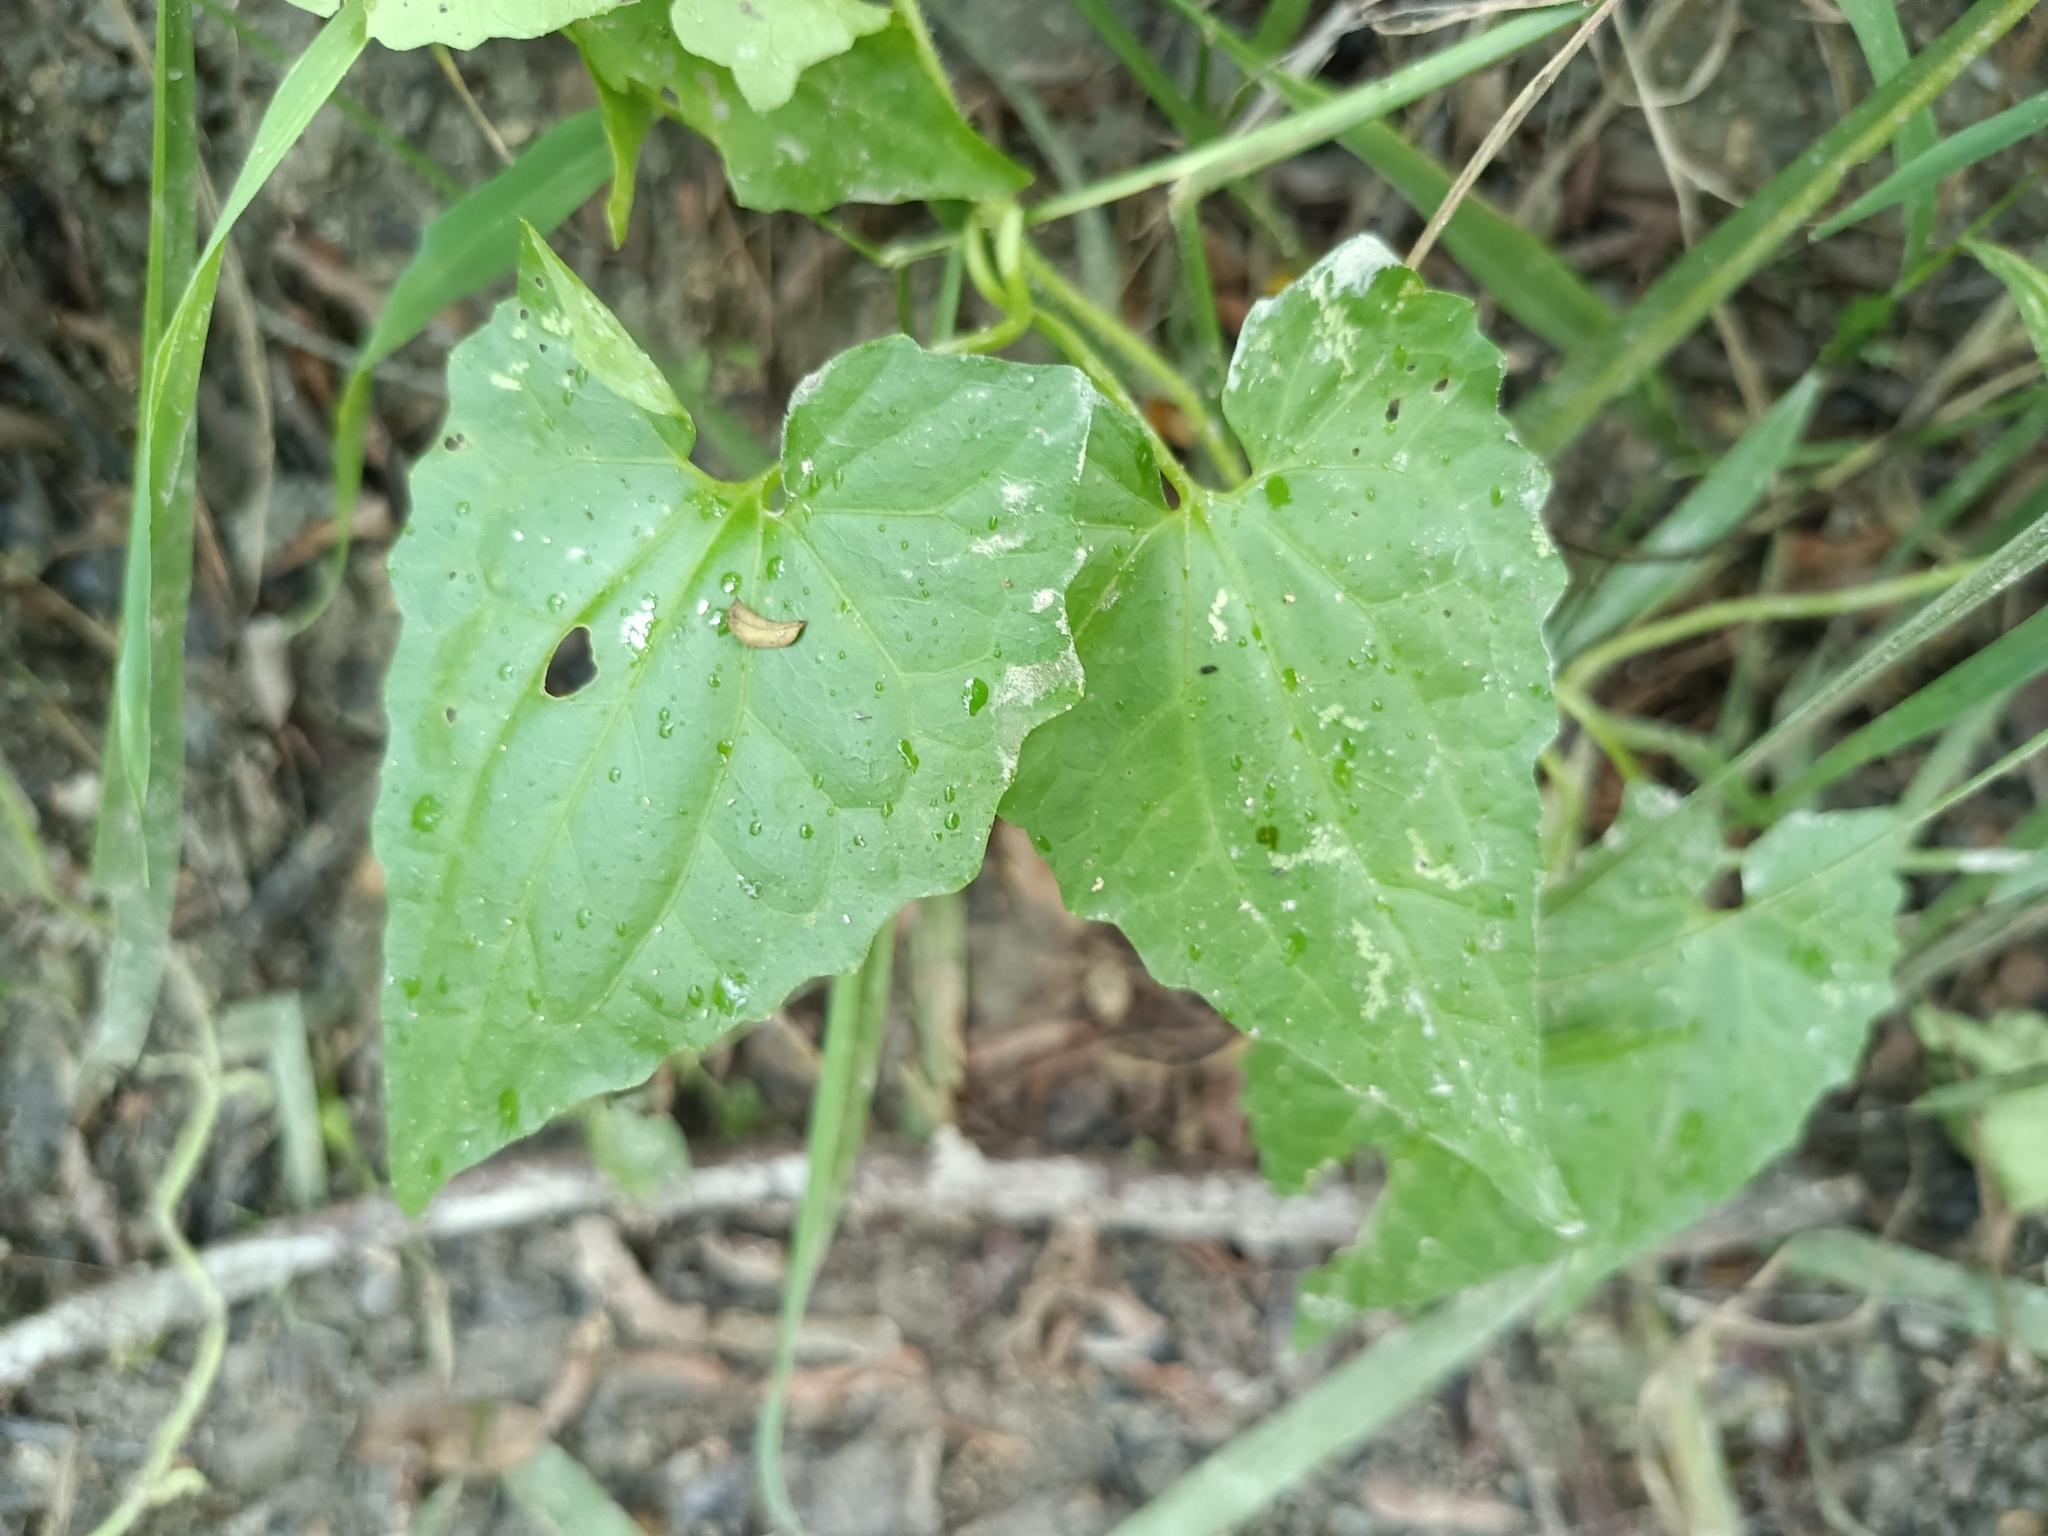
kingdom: Plantae
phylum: Tracheophyta
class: Magnoliopsida
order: Asterales
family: Asteraceae
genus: Mikania
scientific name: Mikania micrantha
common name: Mile-a-minute
